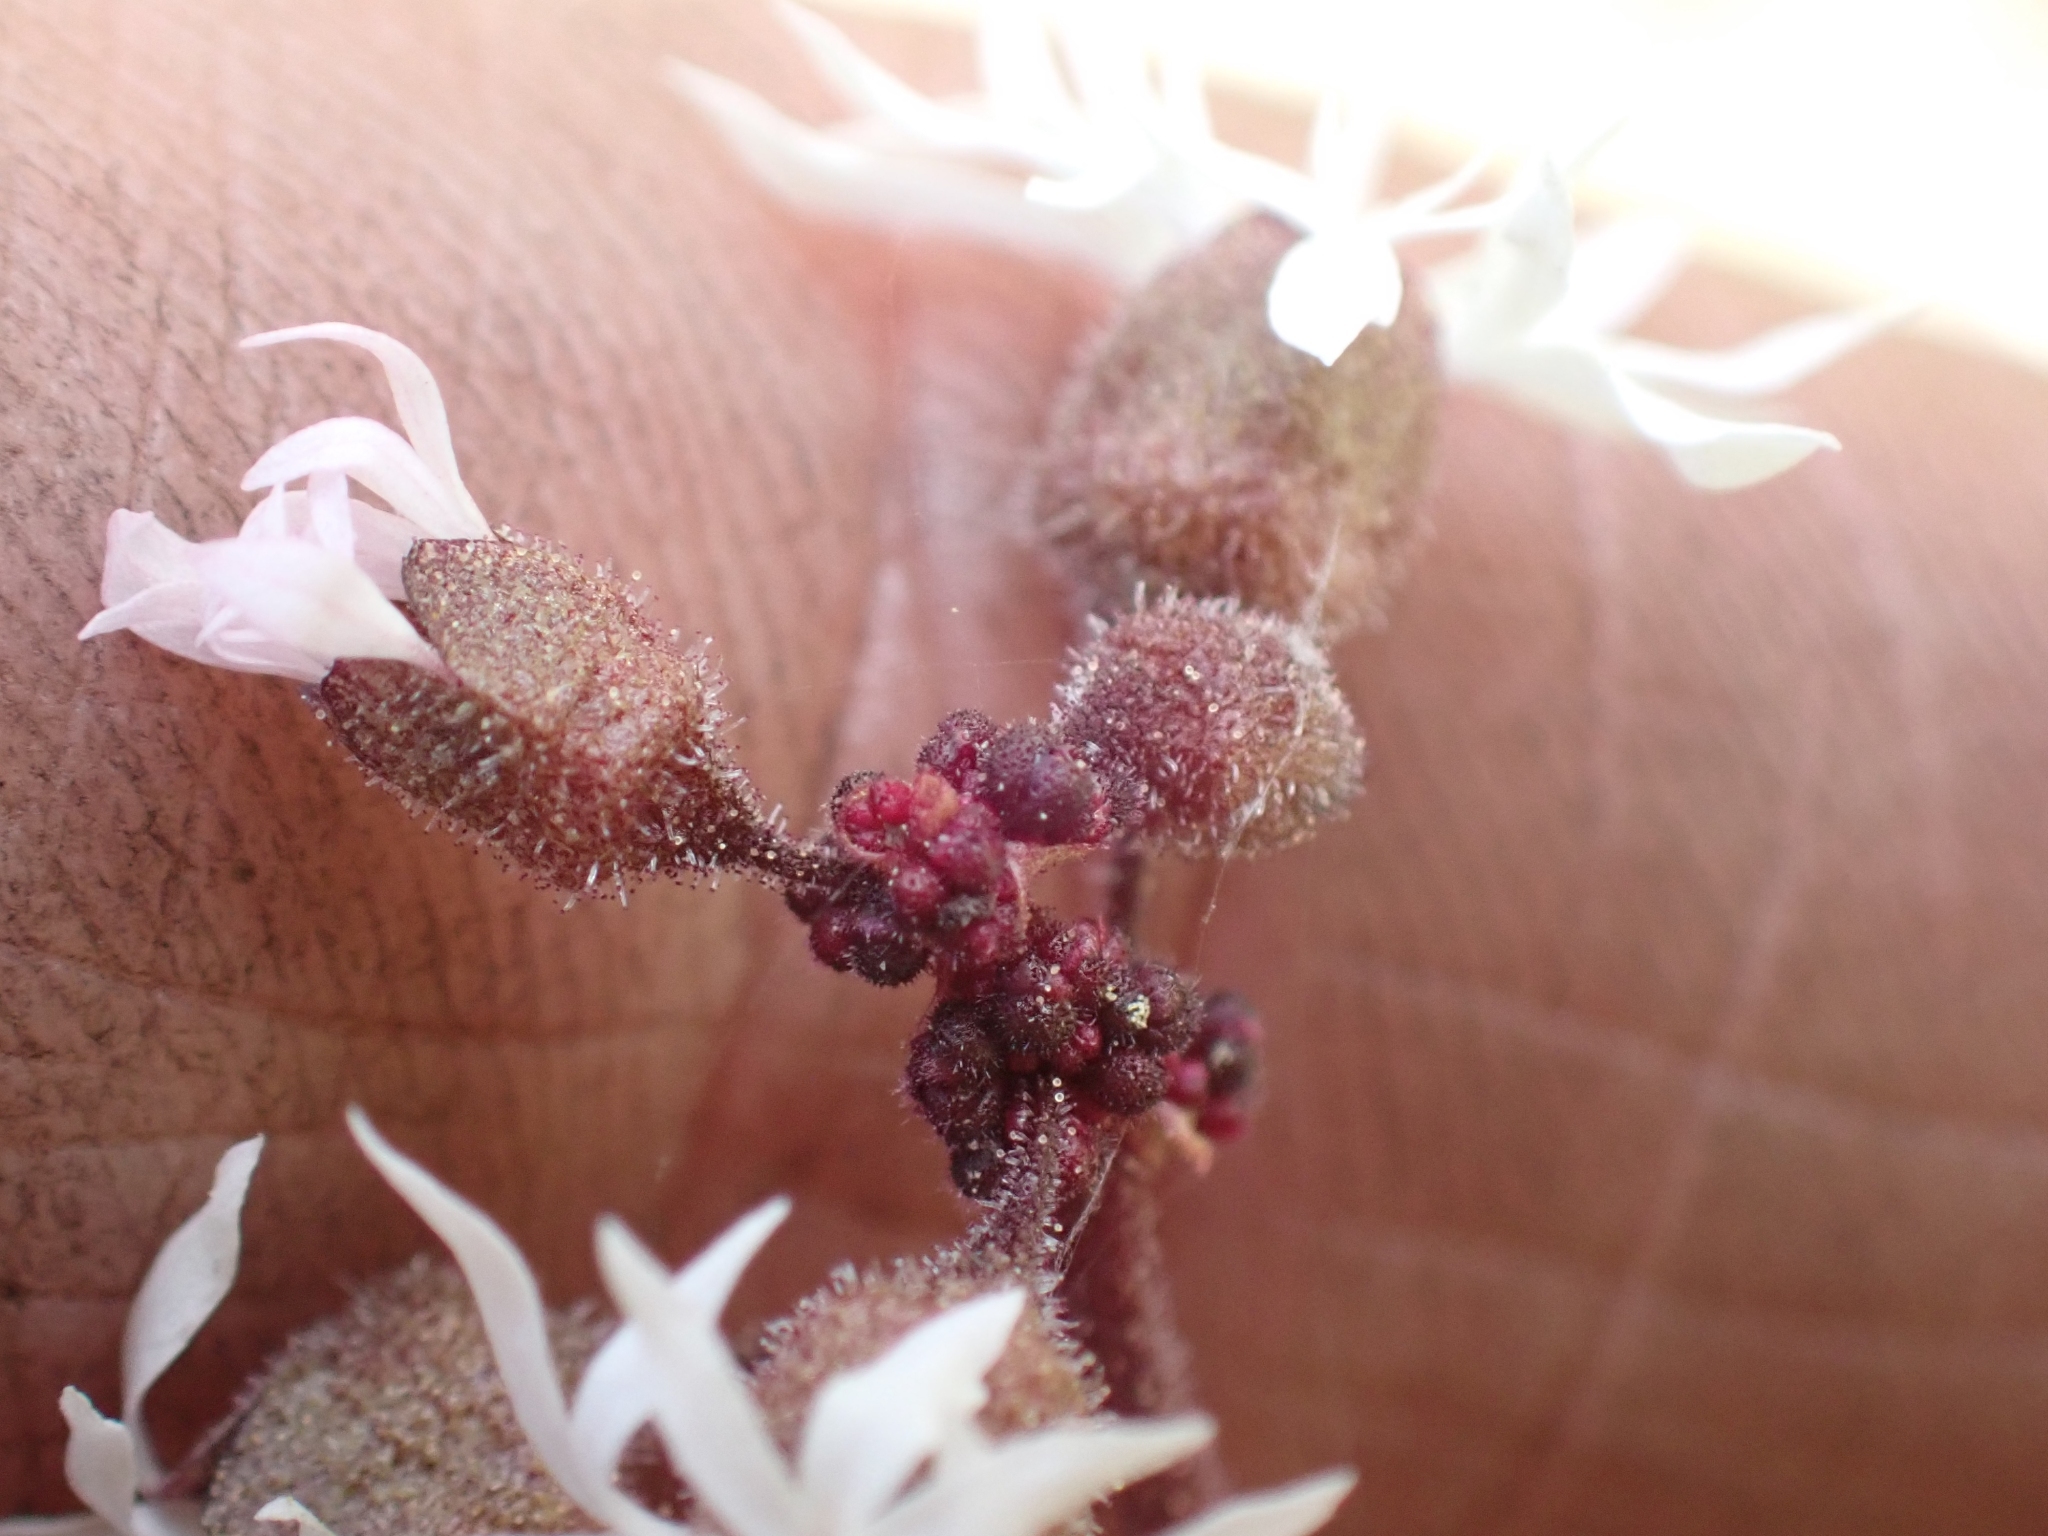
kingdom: Plantae
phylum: Tracheophyta
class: Magnoliopsida
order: Saxifragales
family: Saxifragaceae
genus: Lithophragma
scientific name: Lithophragma glabrum
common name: Bulbous prairie-star
